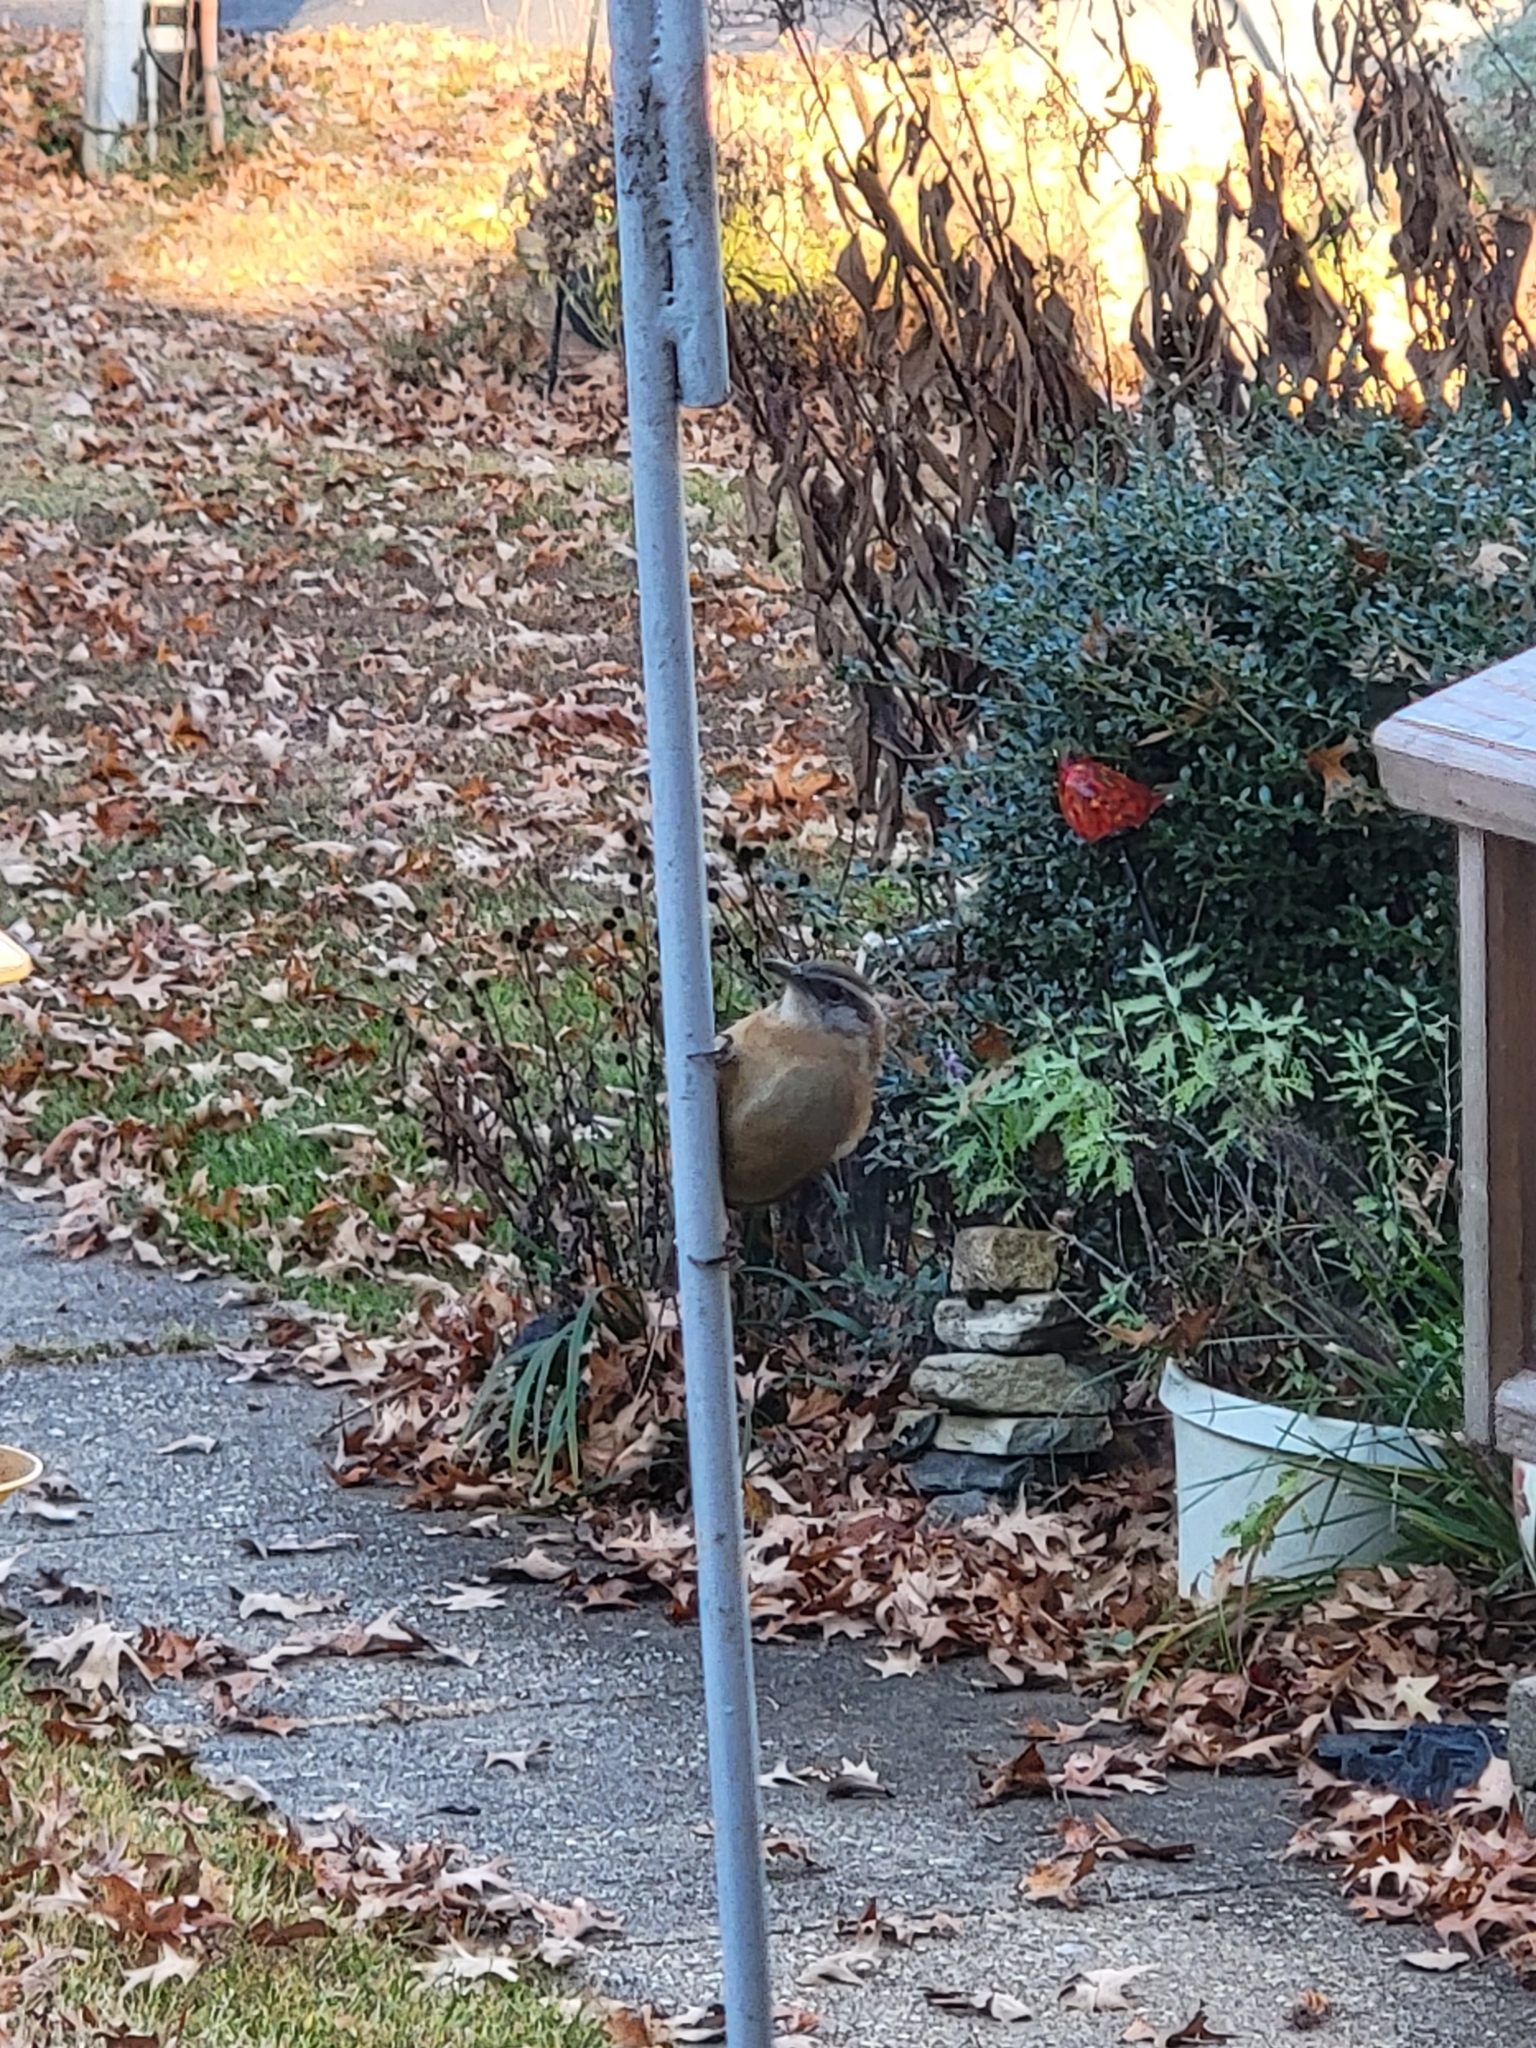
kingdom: Animalia
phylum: Chordata
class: Aves
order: Passeriformes
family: Troglodytidae
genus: Thryothorus
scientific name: Thryothorus ludovicianus
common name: Carolina wren
